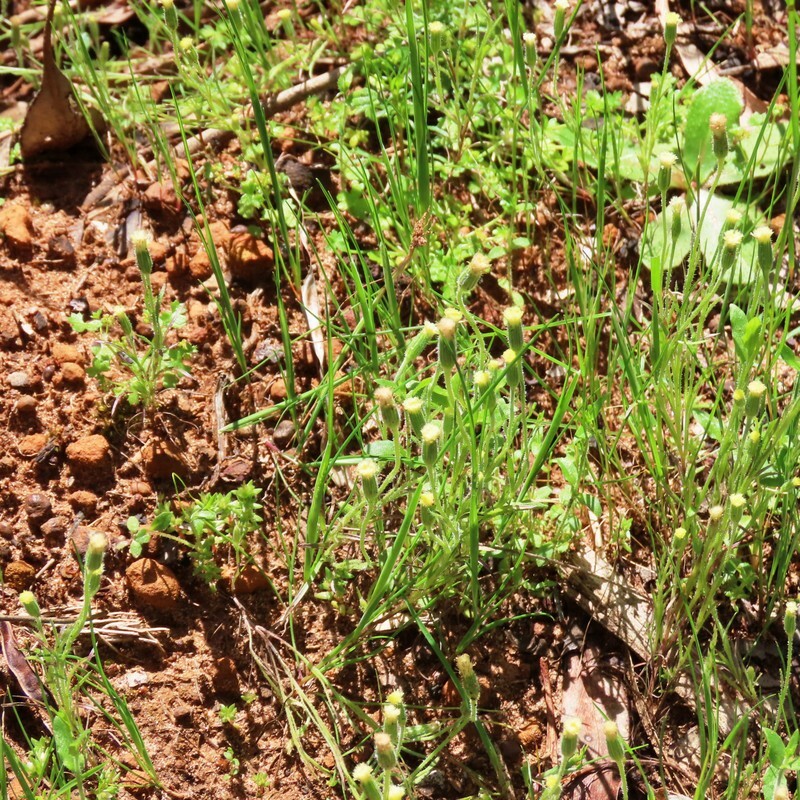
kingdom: Plantae
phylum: Tracheophyta
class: Magnoliopsida
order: Asterales
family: Asteraceae
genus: Millotia
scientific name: Millotia tenuifolia
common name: Soft millotia
